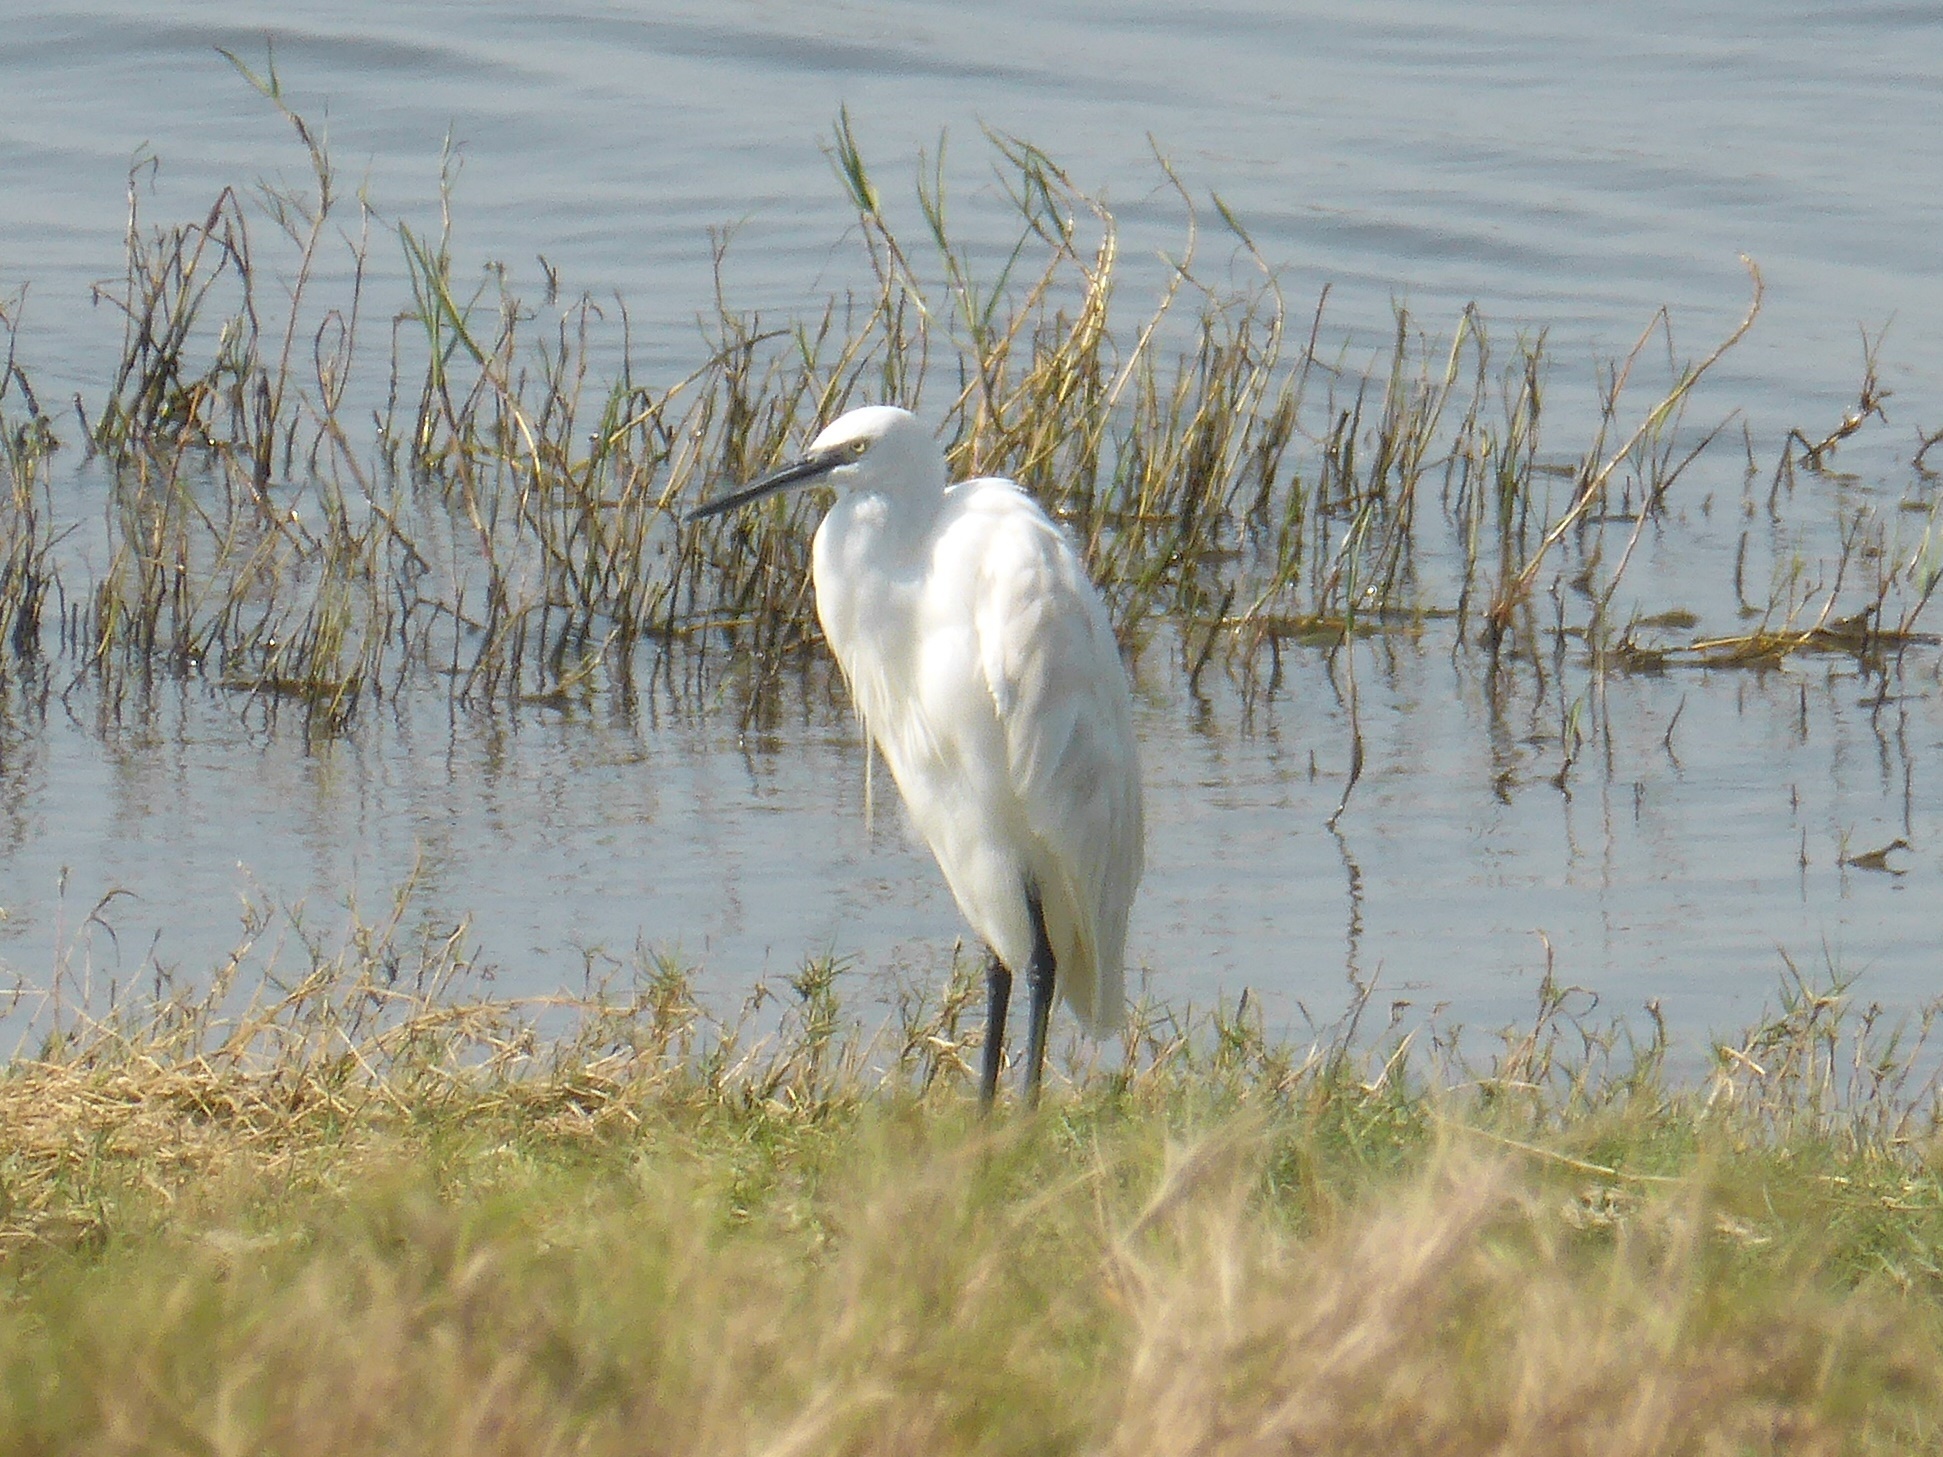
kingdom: Animalia
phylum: Chordata
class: Aves
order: Pelecaniformes
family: Ardeidae
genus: Egretta
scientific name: Egretta garzetta
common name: Little egret
